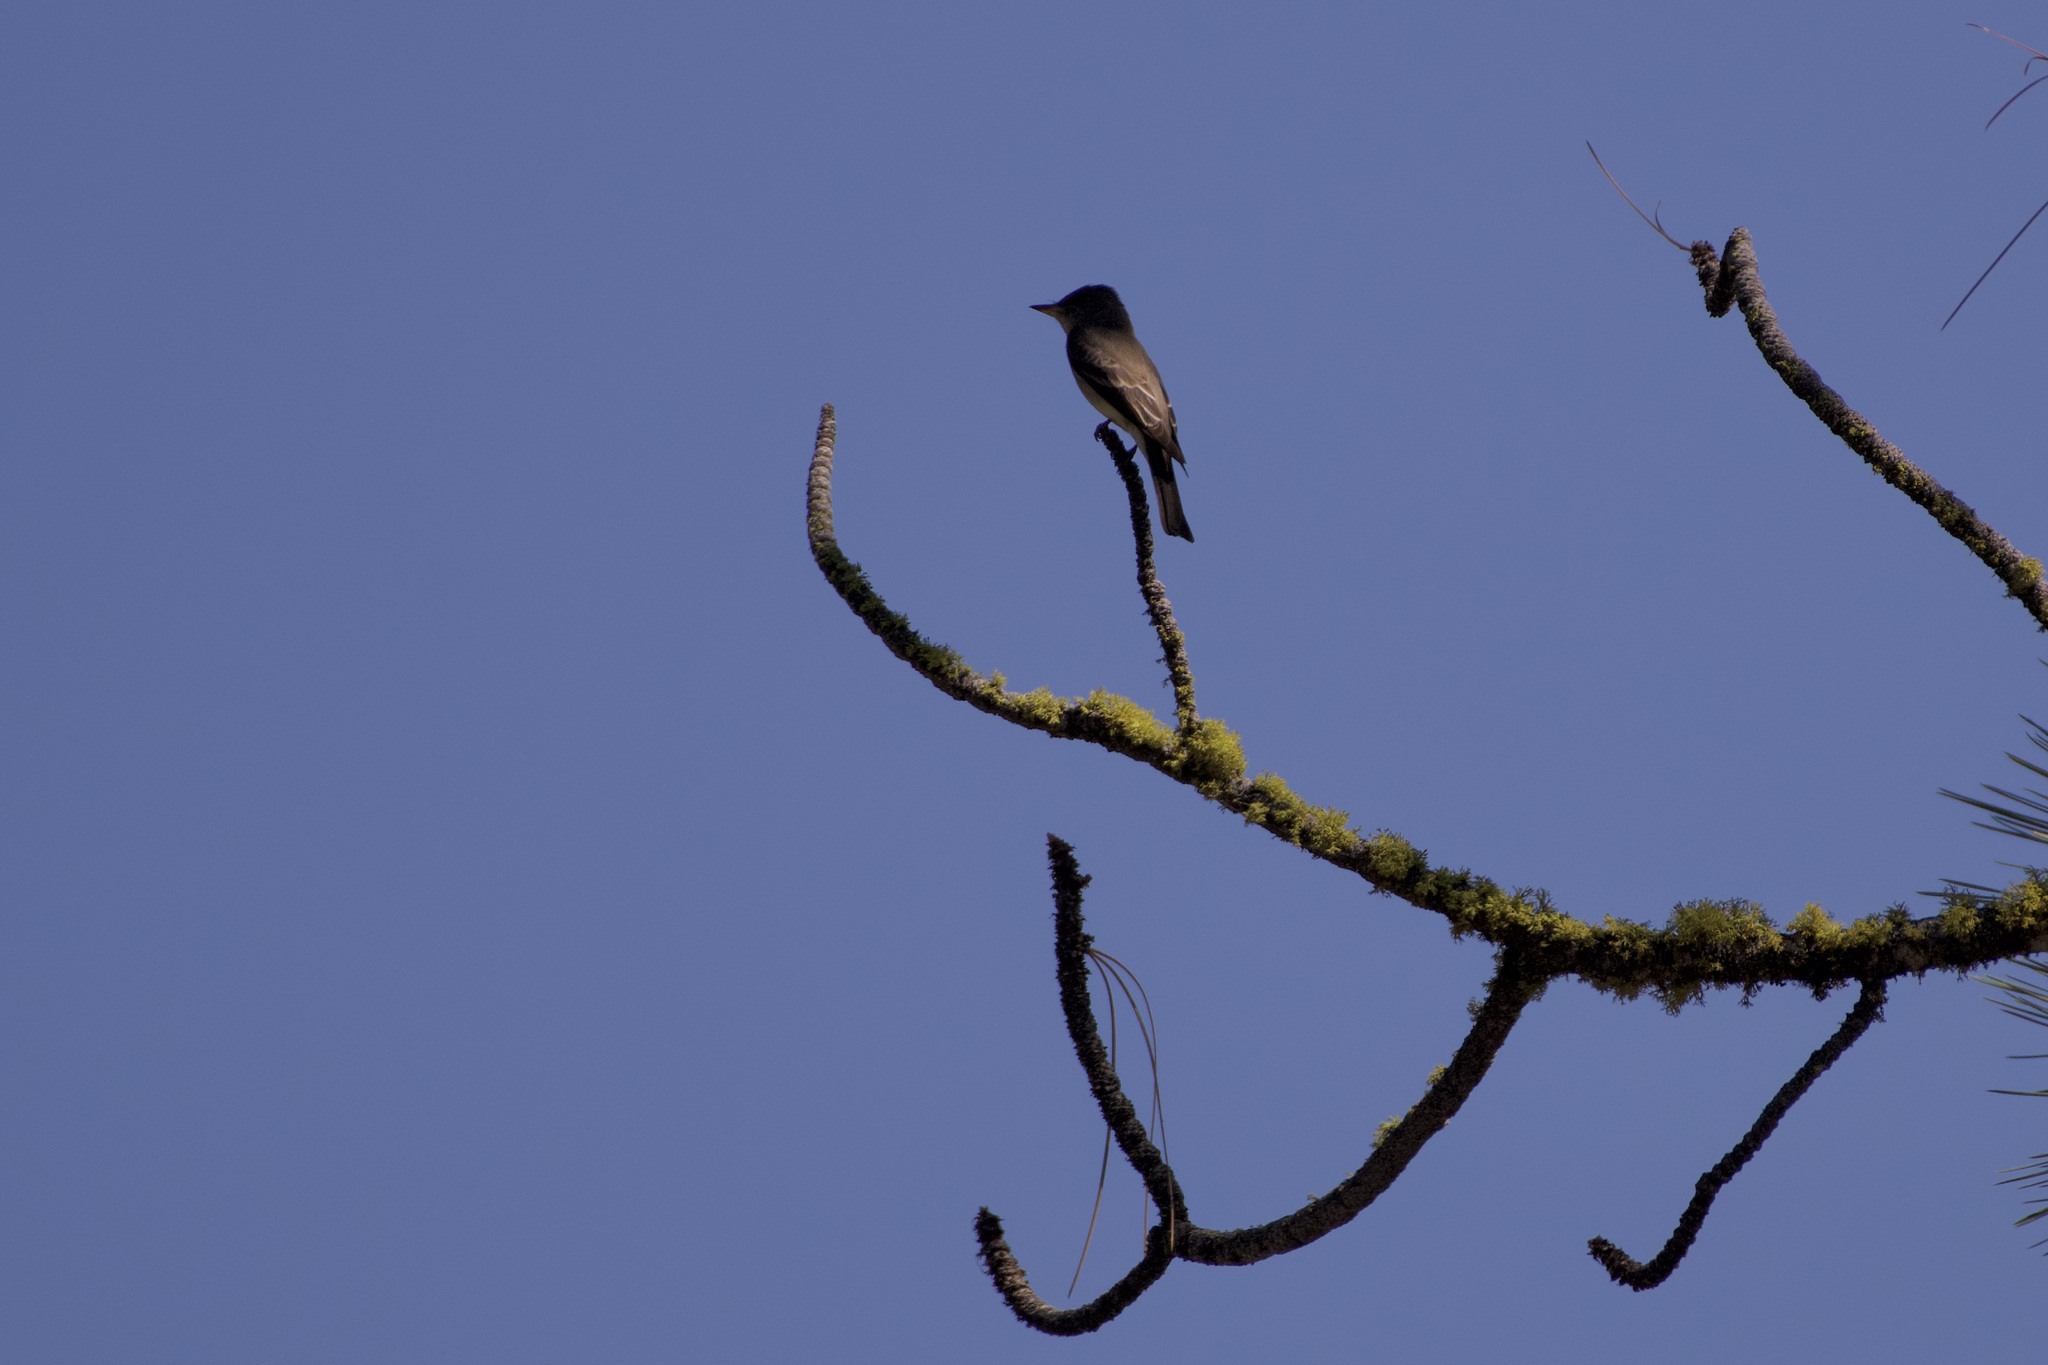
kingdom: Animalia
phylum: Chordata
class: Aves
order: Passeriformes
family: Tyrannidae
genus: Contopus
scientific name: Contopus sordidulus
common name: Western wood-pewee
